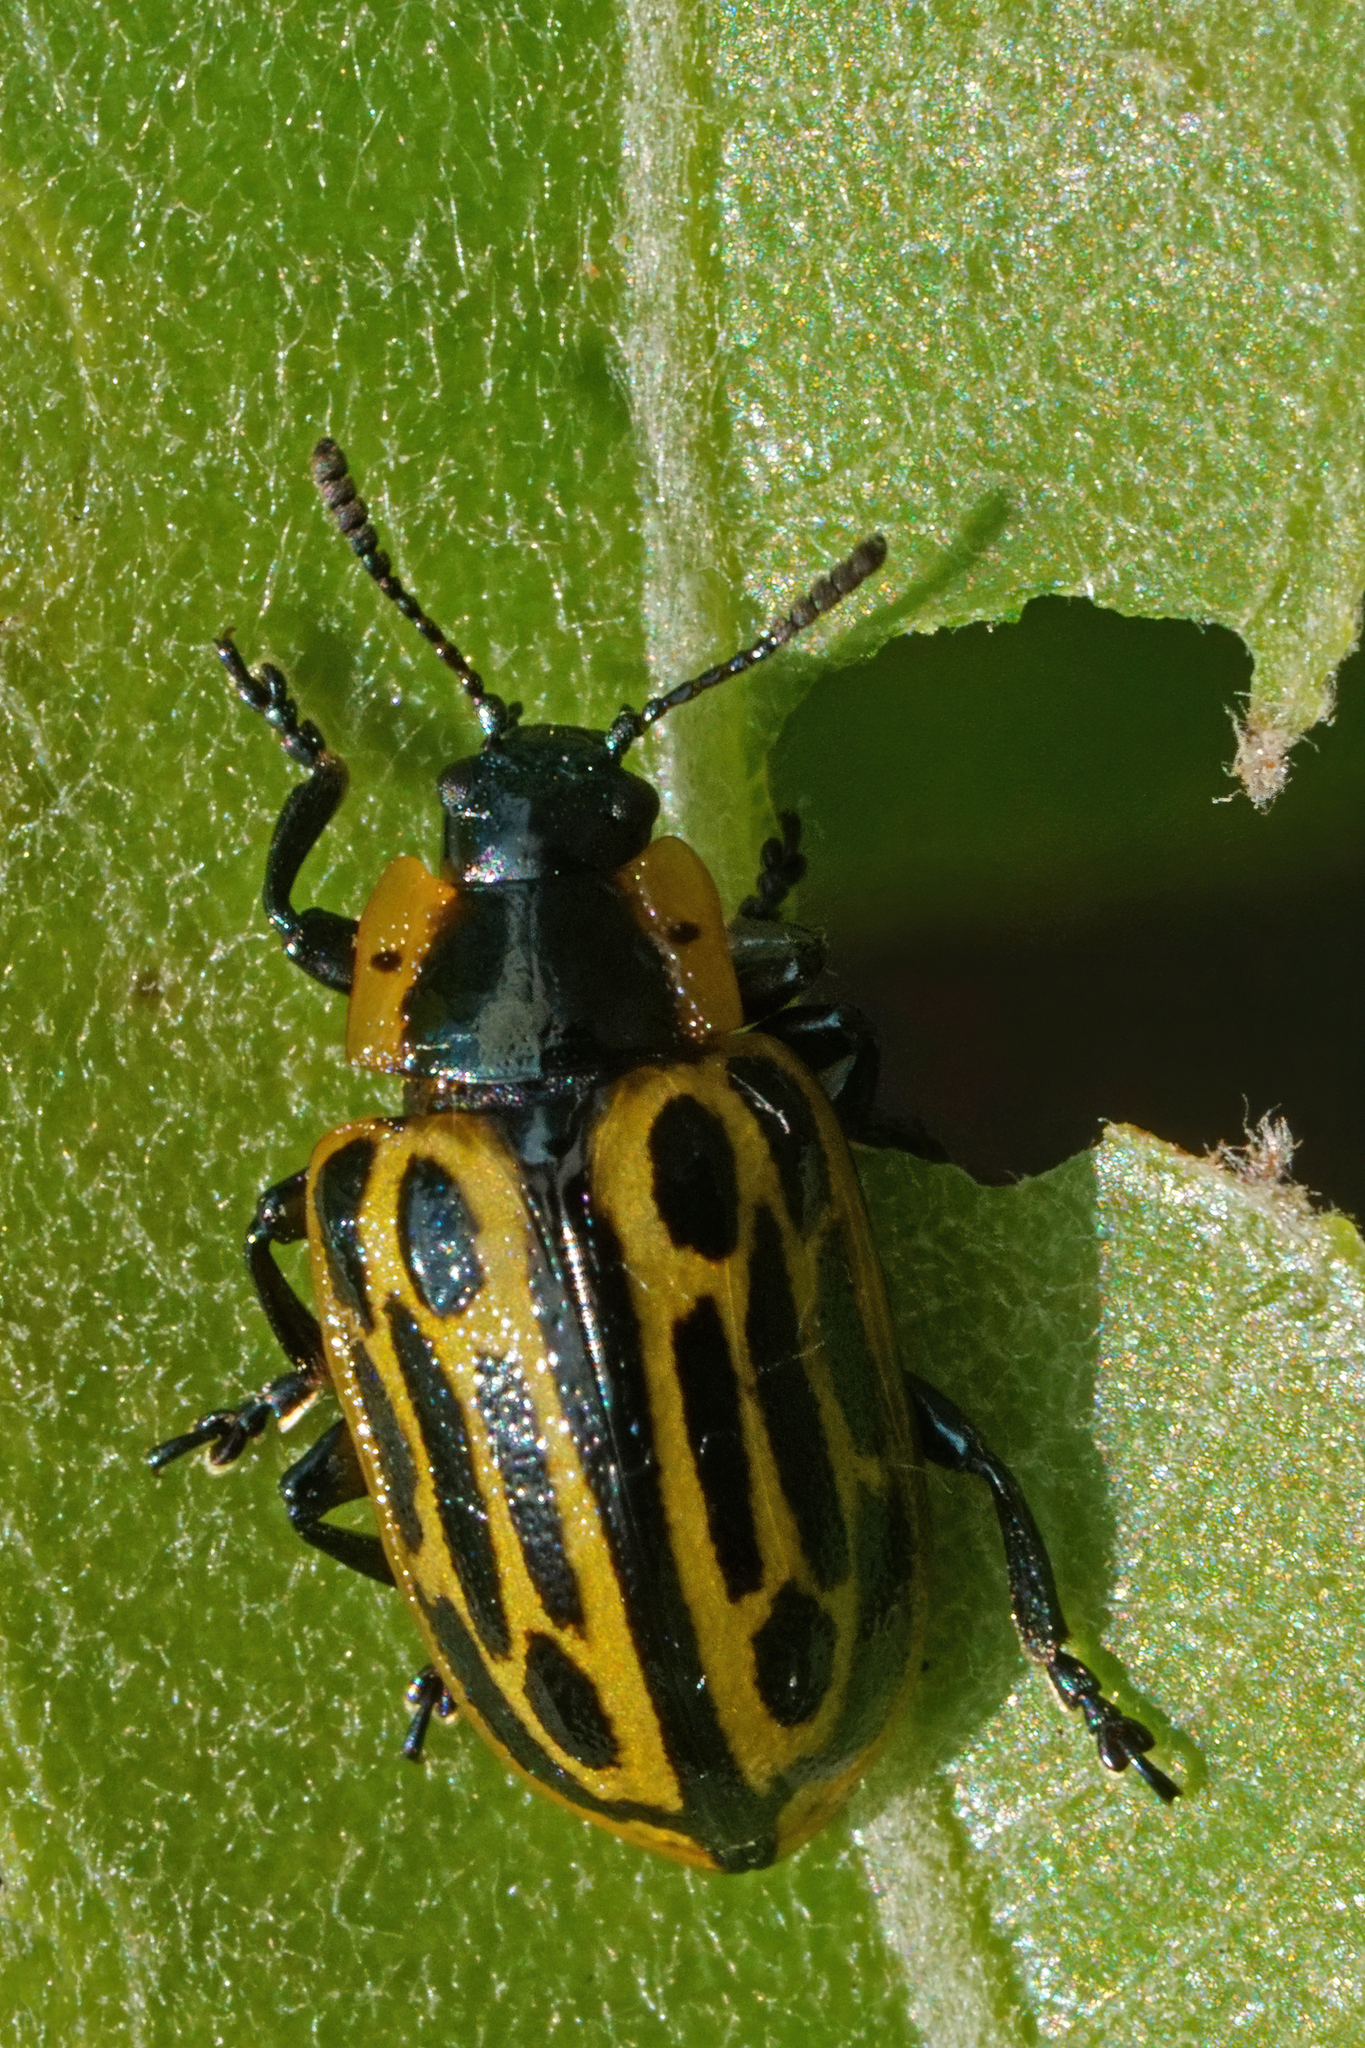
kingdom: Animalia
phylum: Arthropoda
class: Insecta
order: Coleoptera
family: Chrysomelidae
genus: Aethiopocassis
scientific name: Aethiopocassis scripta
